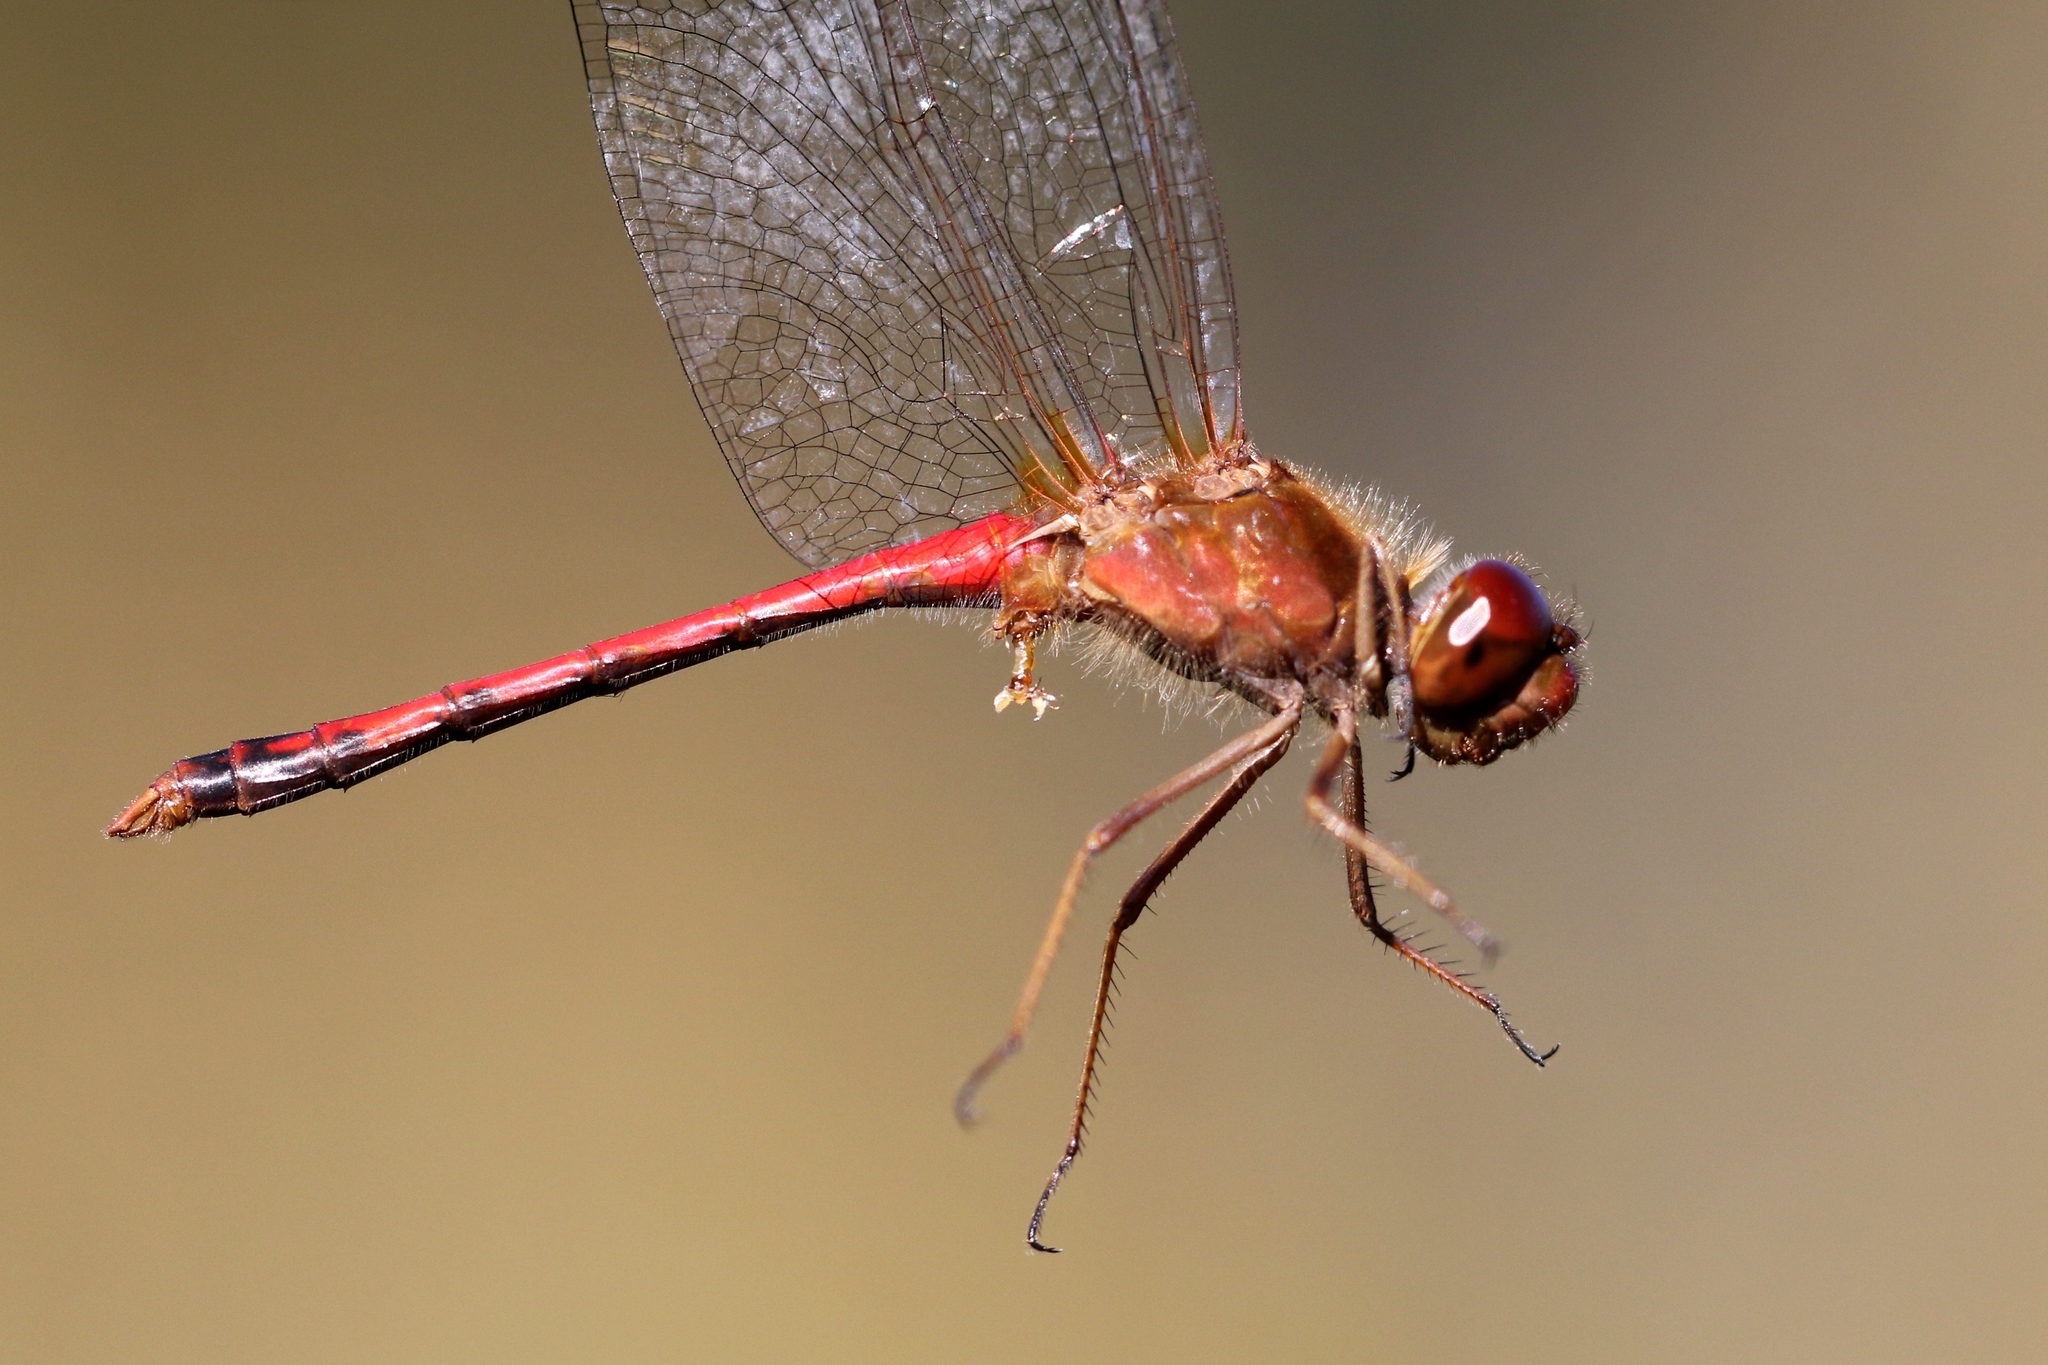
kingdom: Animalia
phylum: Arthropoda
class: Insecta
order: Odonata
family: Libellulidae
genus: Sympetrum
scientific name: Sympetrum vicinum
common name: Autumn meadowhawk
